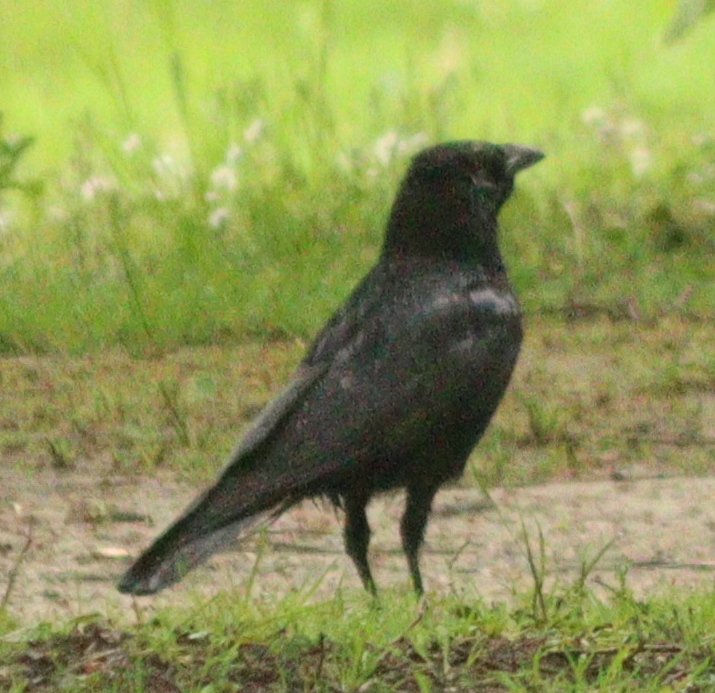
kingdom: Animalia
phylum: Chordata
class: Aves
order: Passeriformes
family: Corvidae
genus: Corvus
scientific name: Corvus corone
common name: Carrion crow
